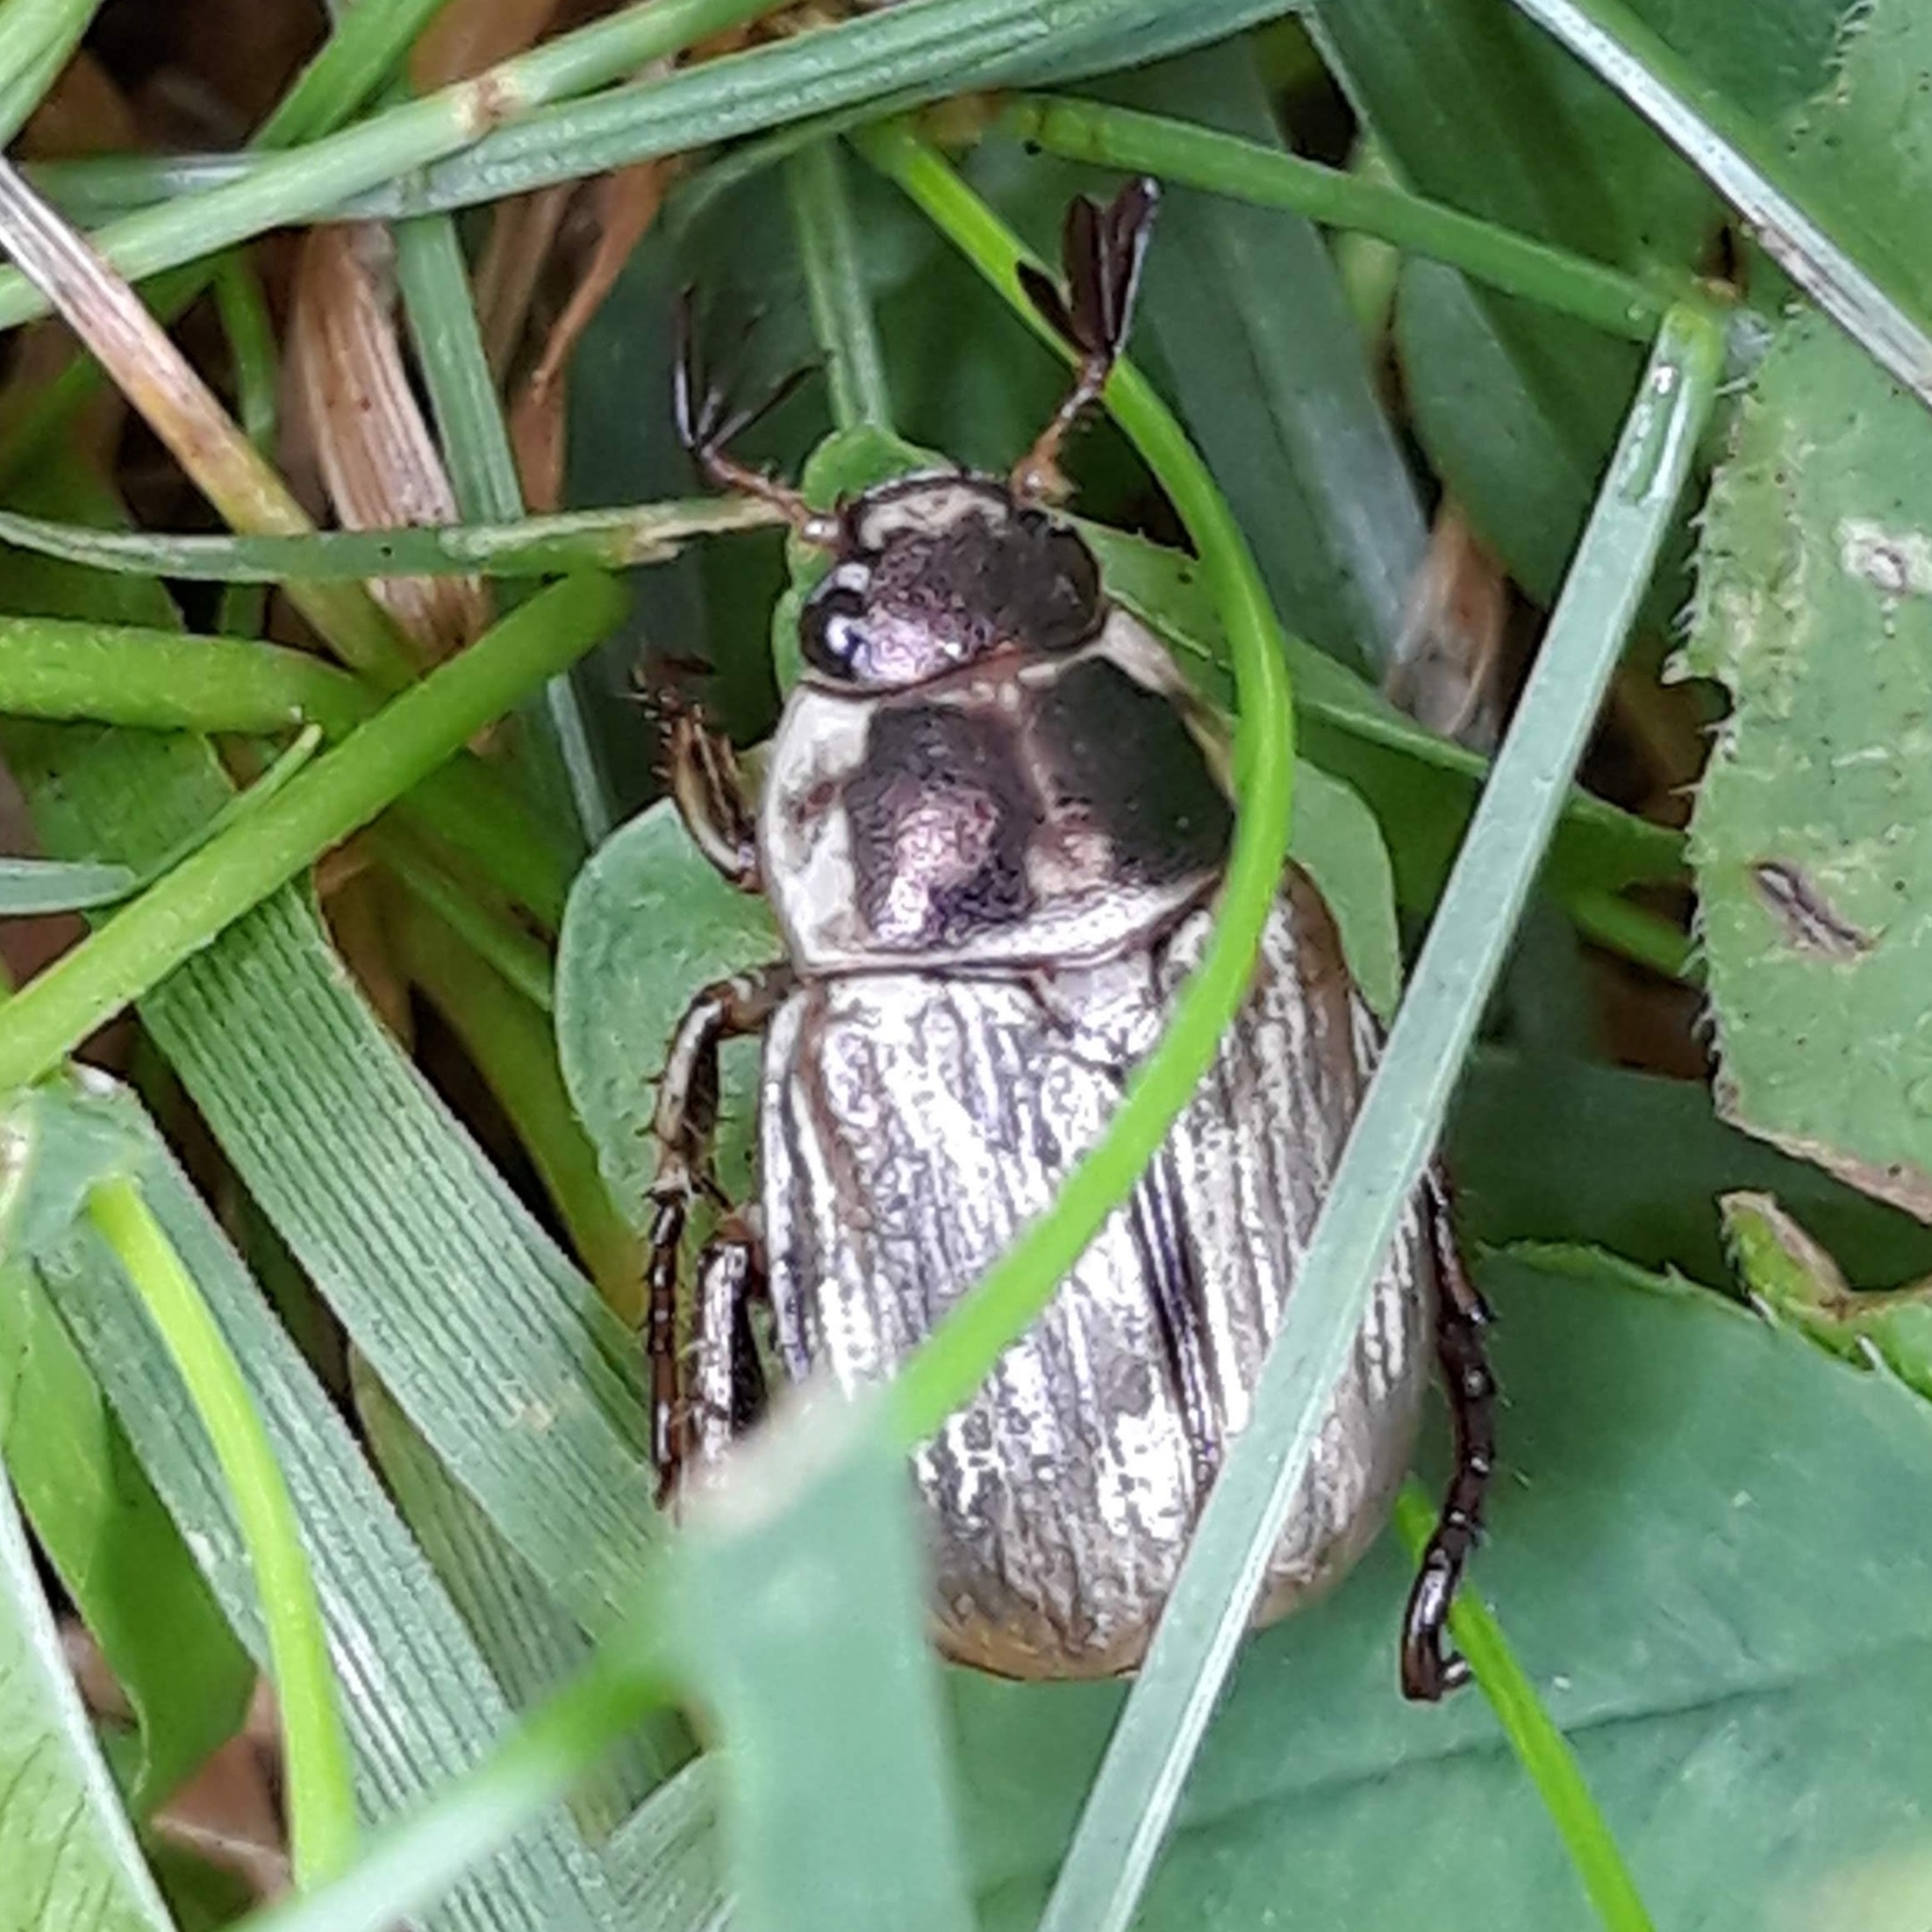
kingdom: Animalia
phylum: Arthropoda
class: Insecta
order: Coleoptera
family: Scarabaeidae
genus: Exomala
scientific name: Exomala orientalis
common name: Oriental beetle
